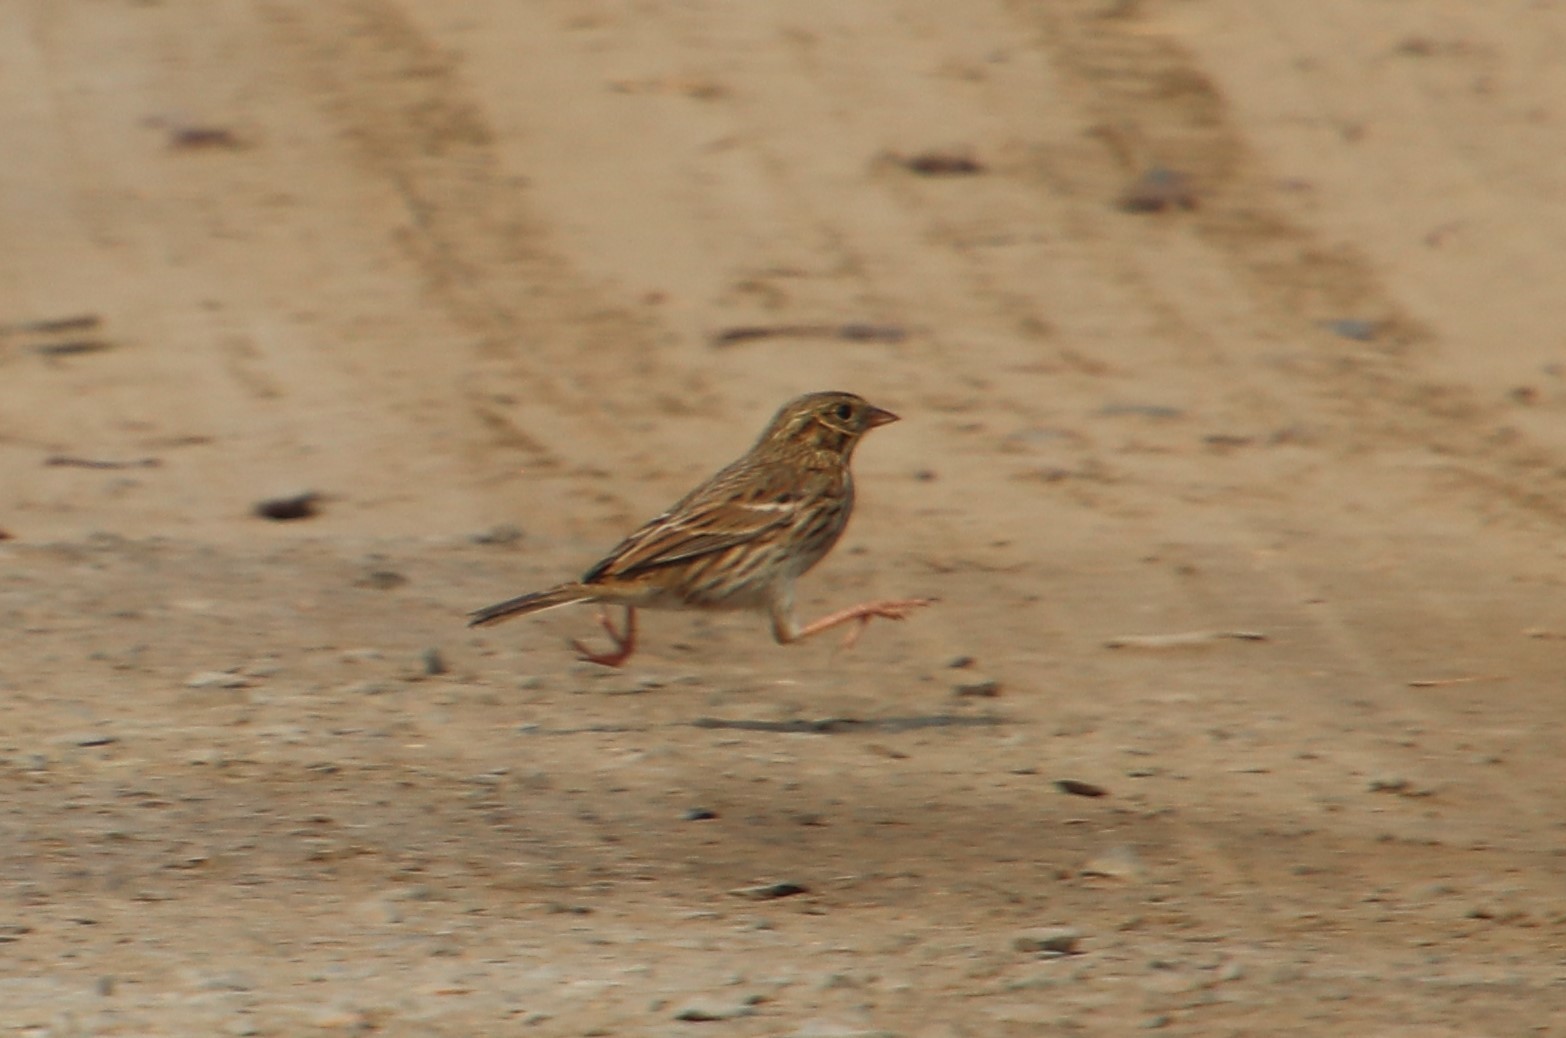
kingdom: Animalia
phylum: Chordata
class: Aves
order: Passeriformes
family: Passerellidae
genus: Passerculus
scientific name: Passerculus sandwichensis
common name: Savannah sparrow
